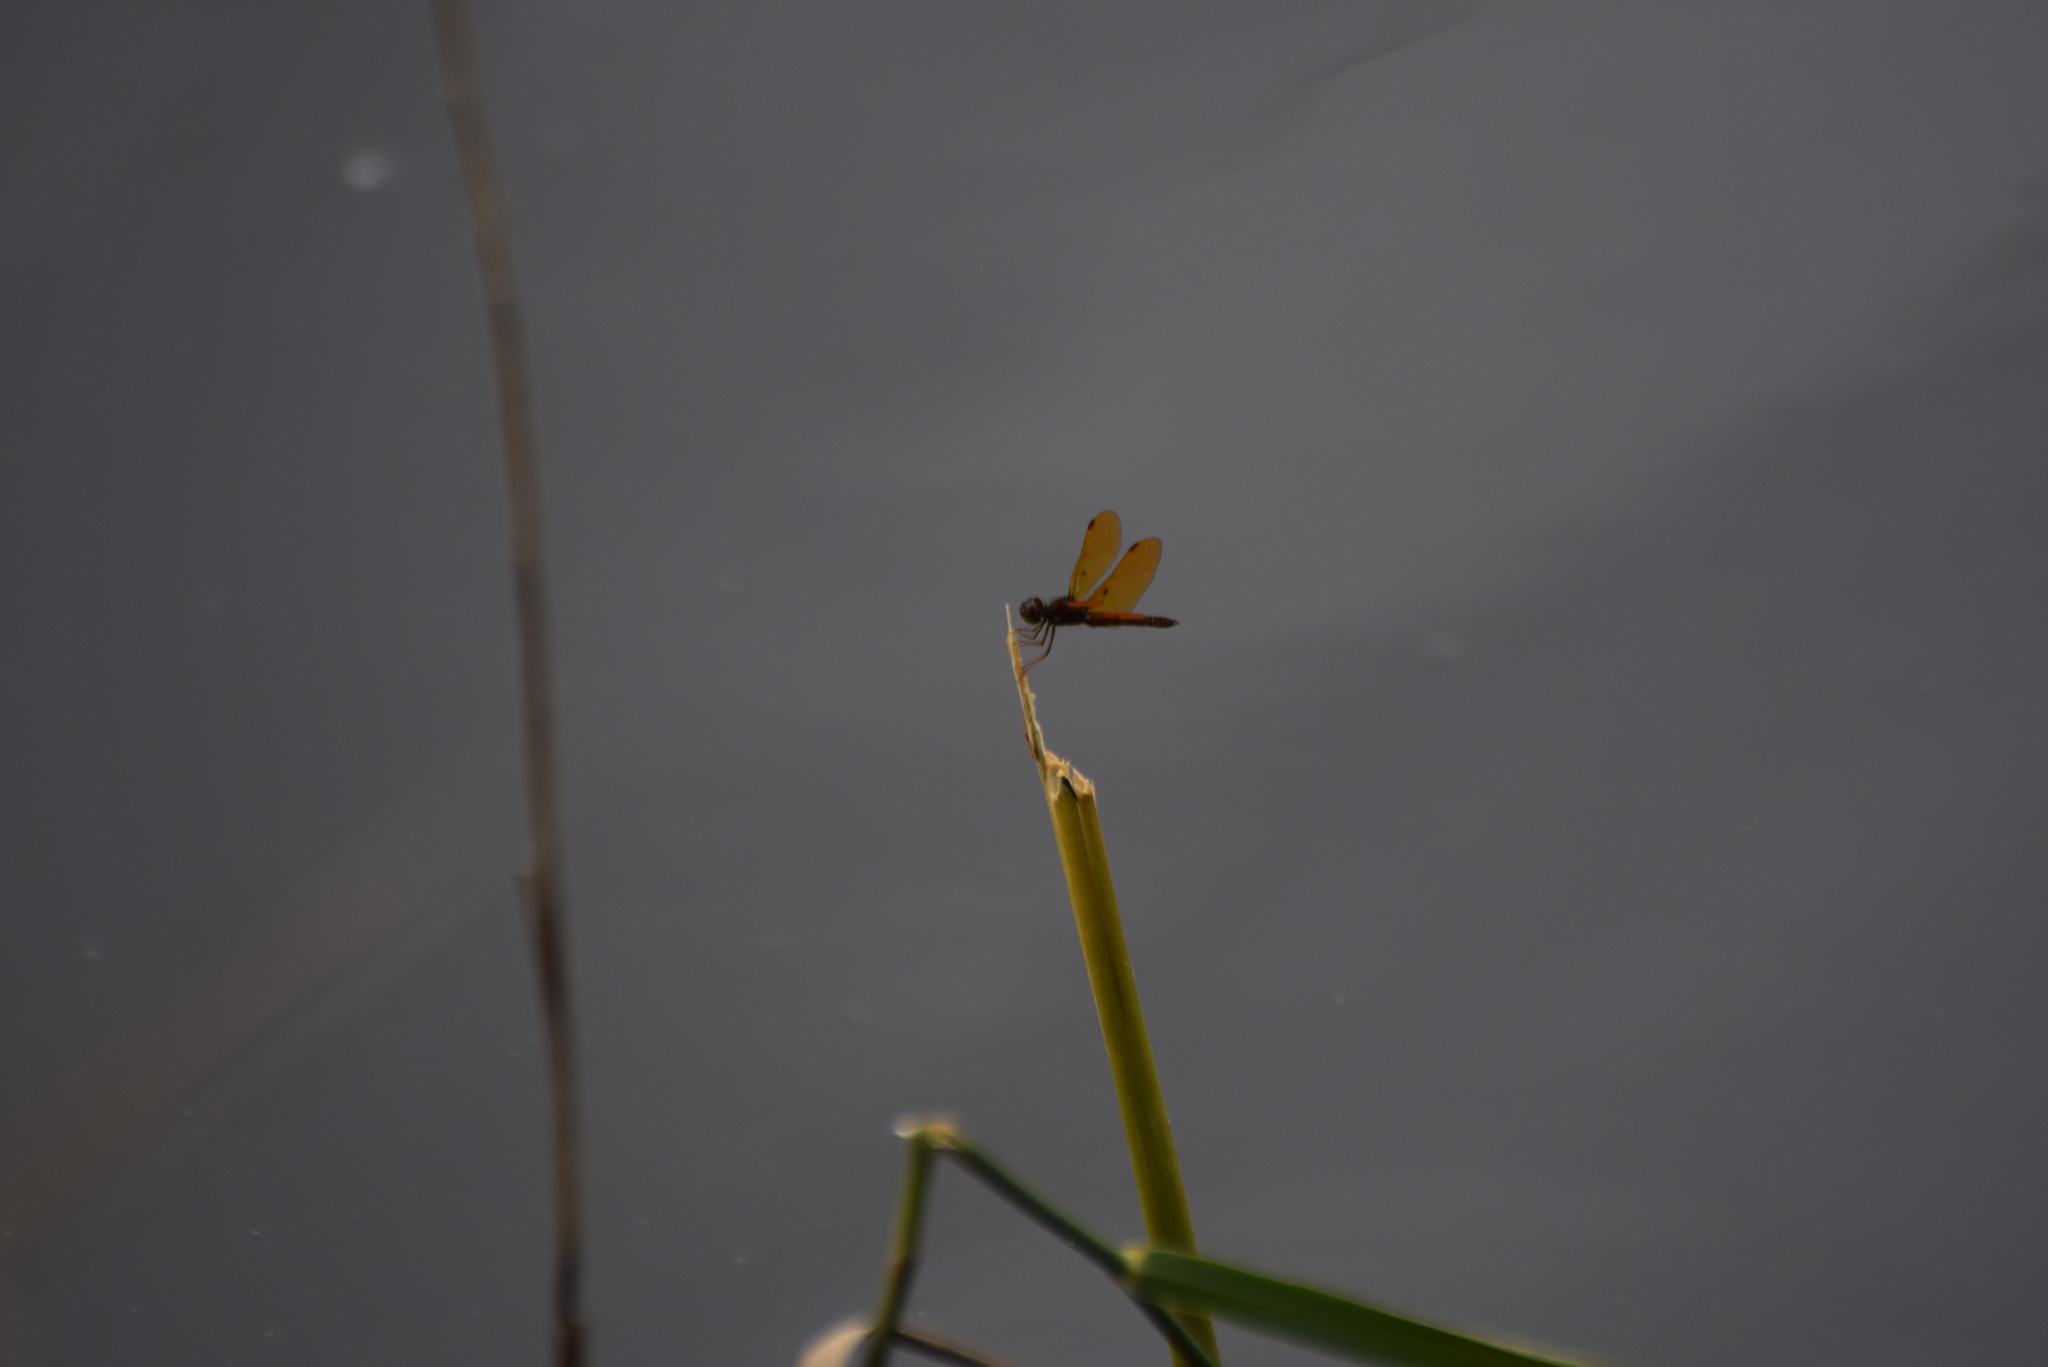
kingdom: Animalia
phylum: Arthropoda
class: Insecta
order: Odonata
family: Libellulidae
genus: Perithemis
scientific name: Perithemis tenera
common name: Eastern amberwing
